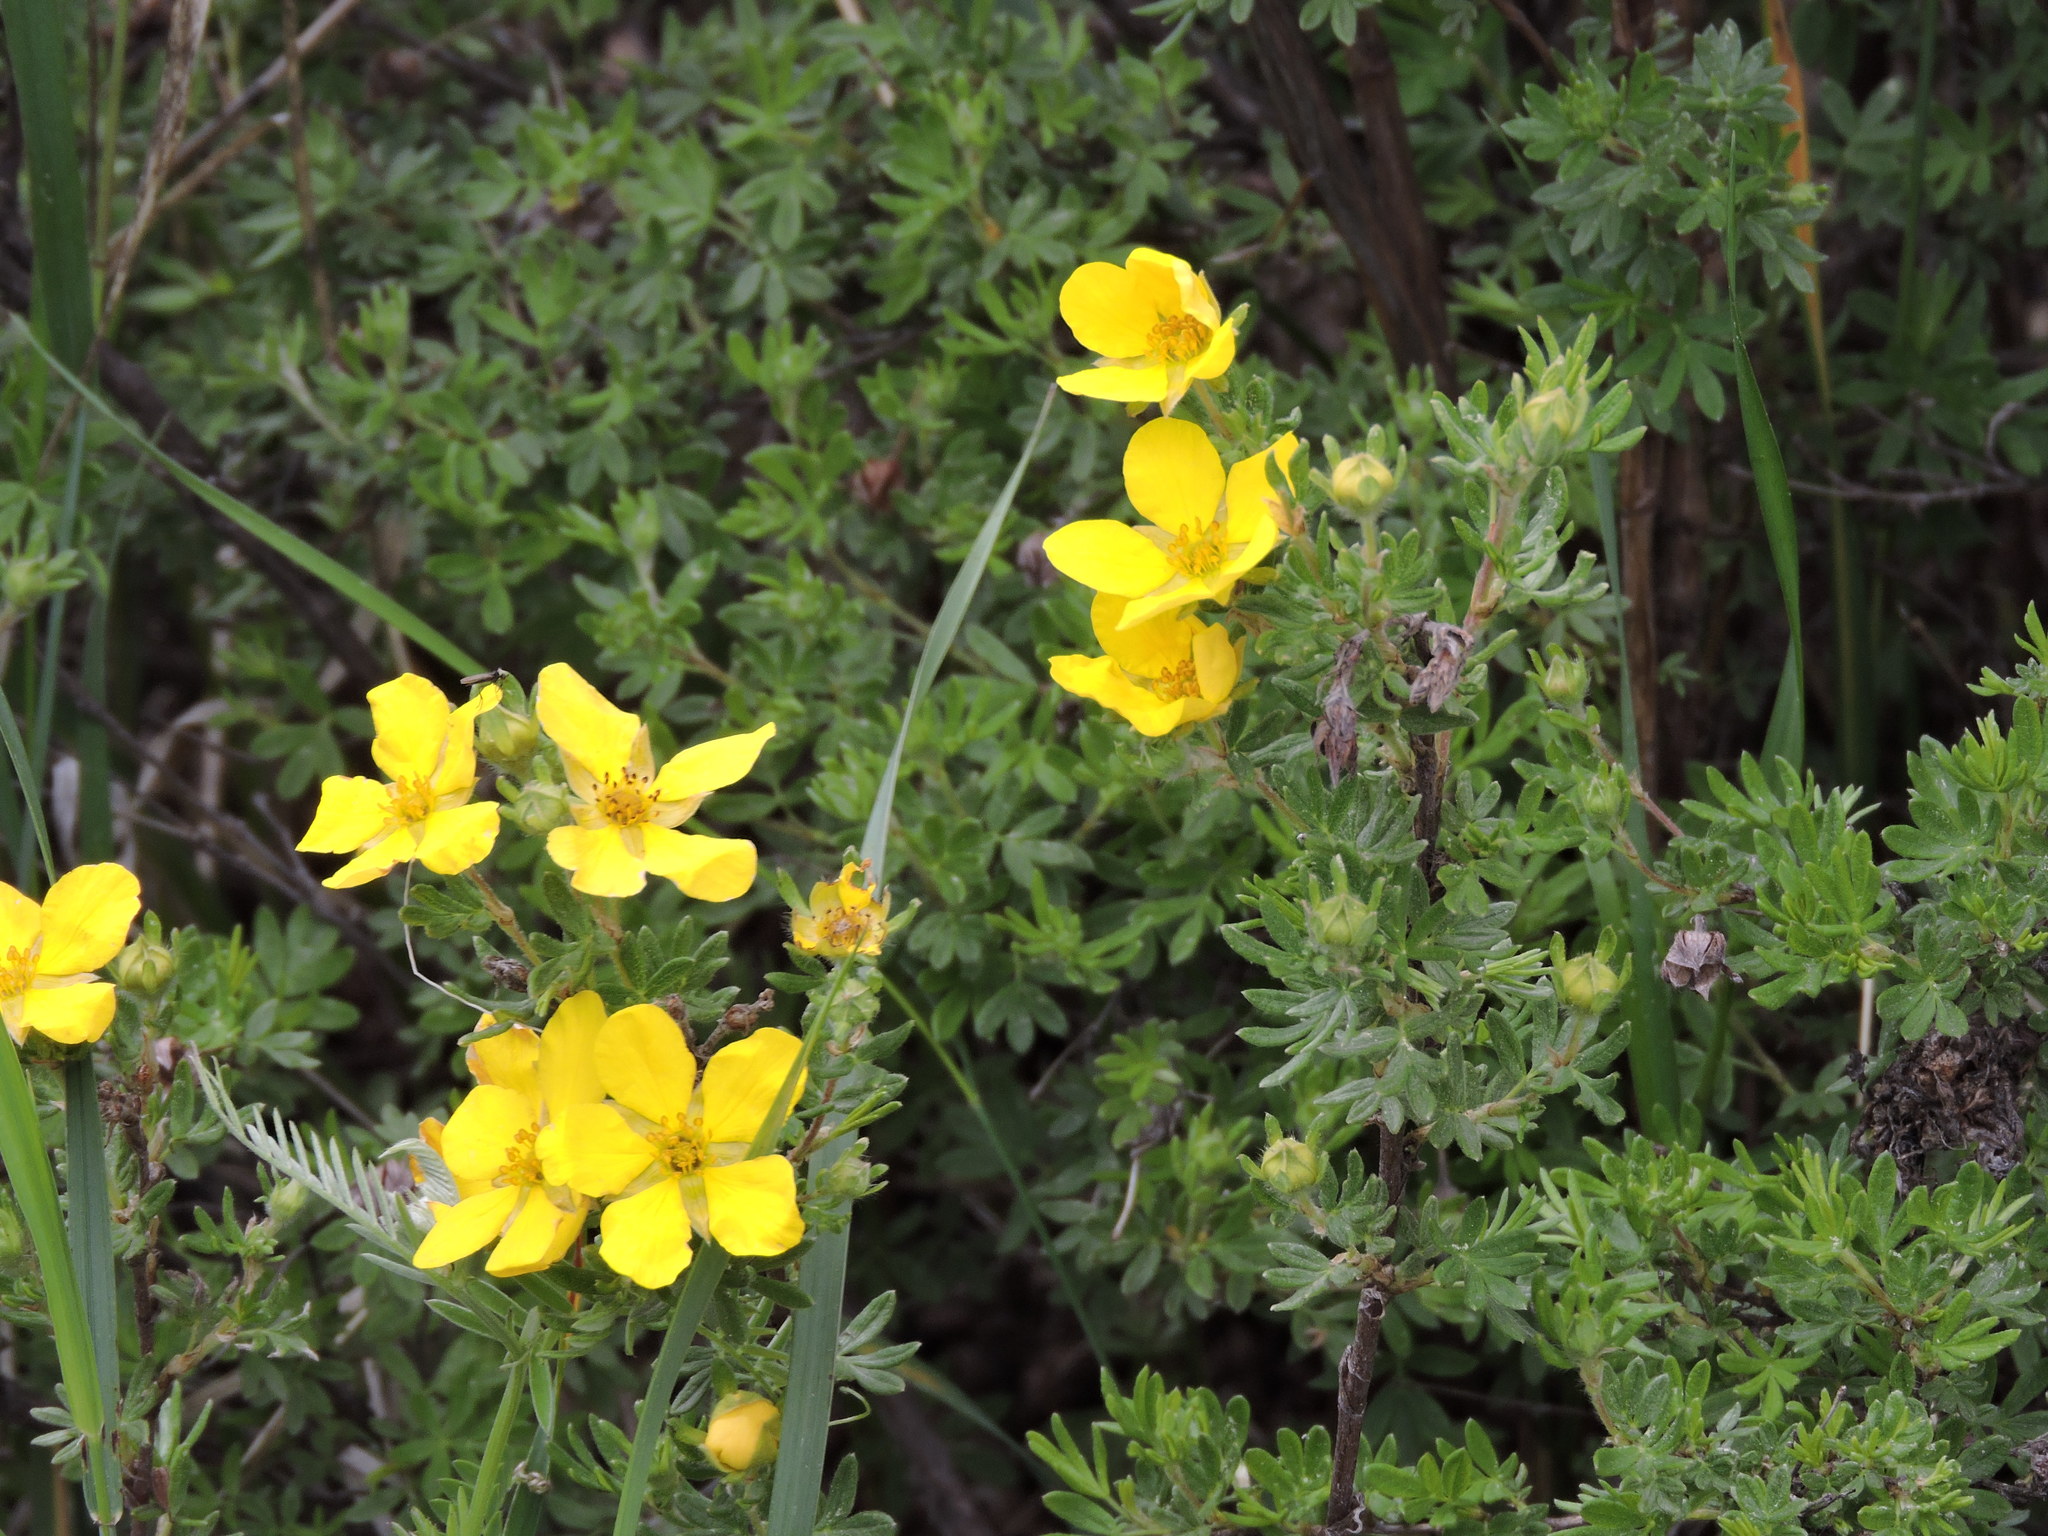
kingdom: Plantae
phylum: Tracheophyta
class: Magnoliopsida
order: Rosales
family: Rosaceae
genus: Dasiphora
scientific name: Dasiphora fruticosa
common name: Shrubby cinquefoil
